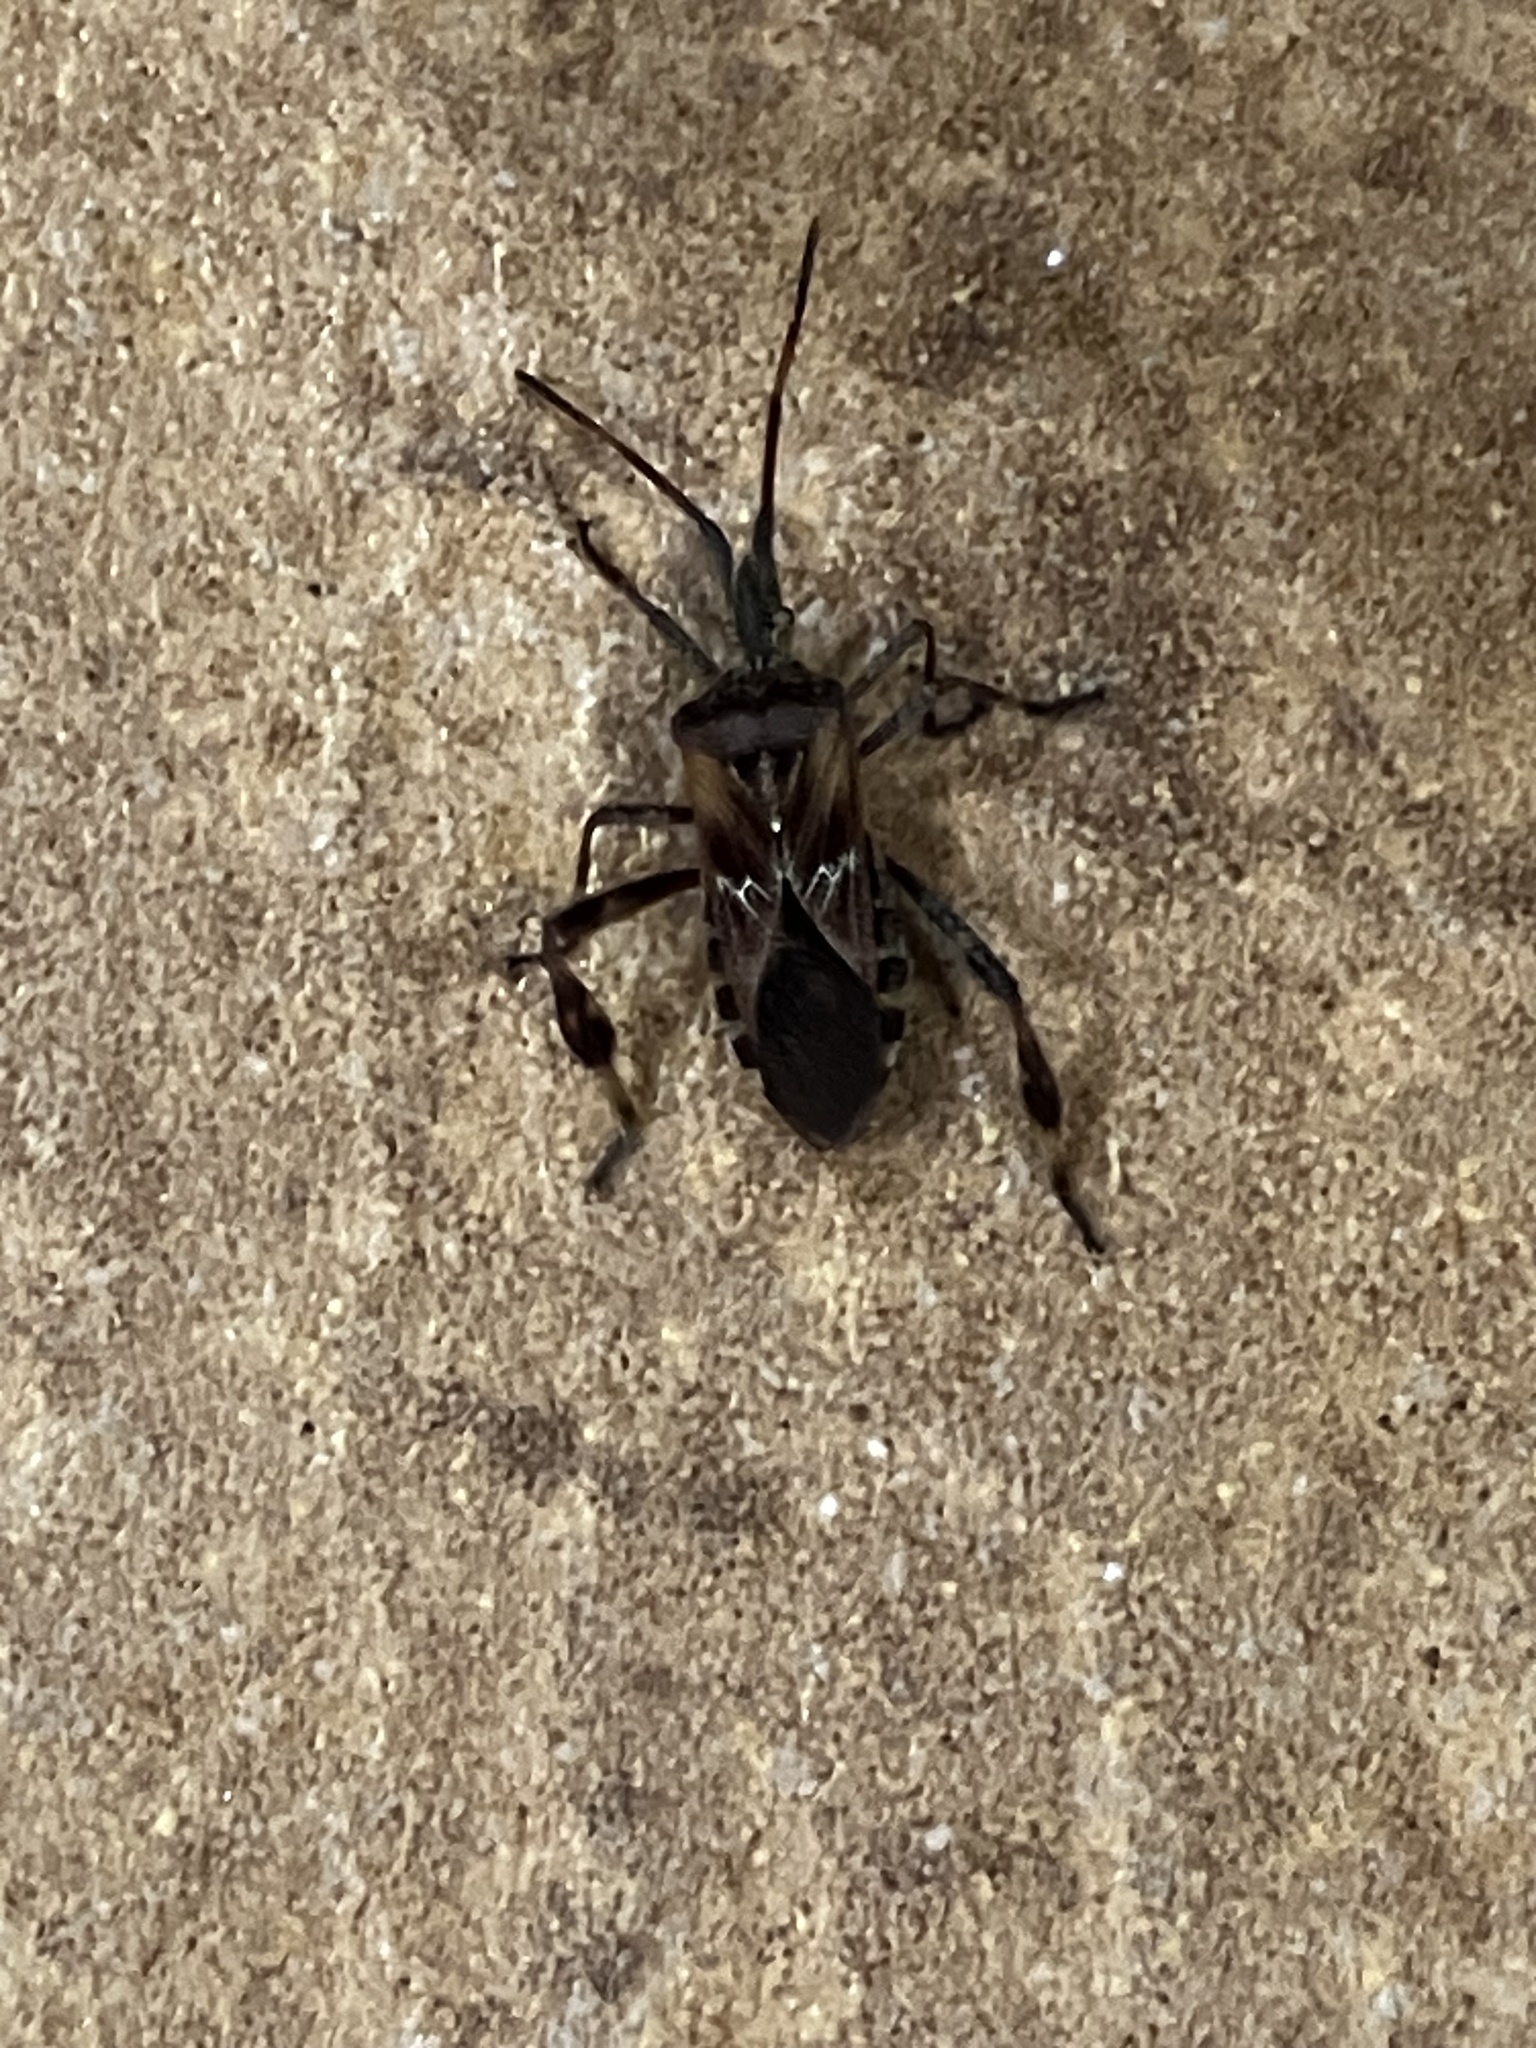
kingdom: Animalia
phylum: Arthropoda
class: Insecta
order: Hemiptera
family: Coreidae
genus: Leptoglossus
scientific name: Leptoglossus occidentalis
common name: Western conifer-seed bug
